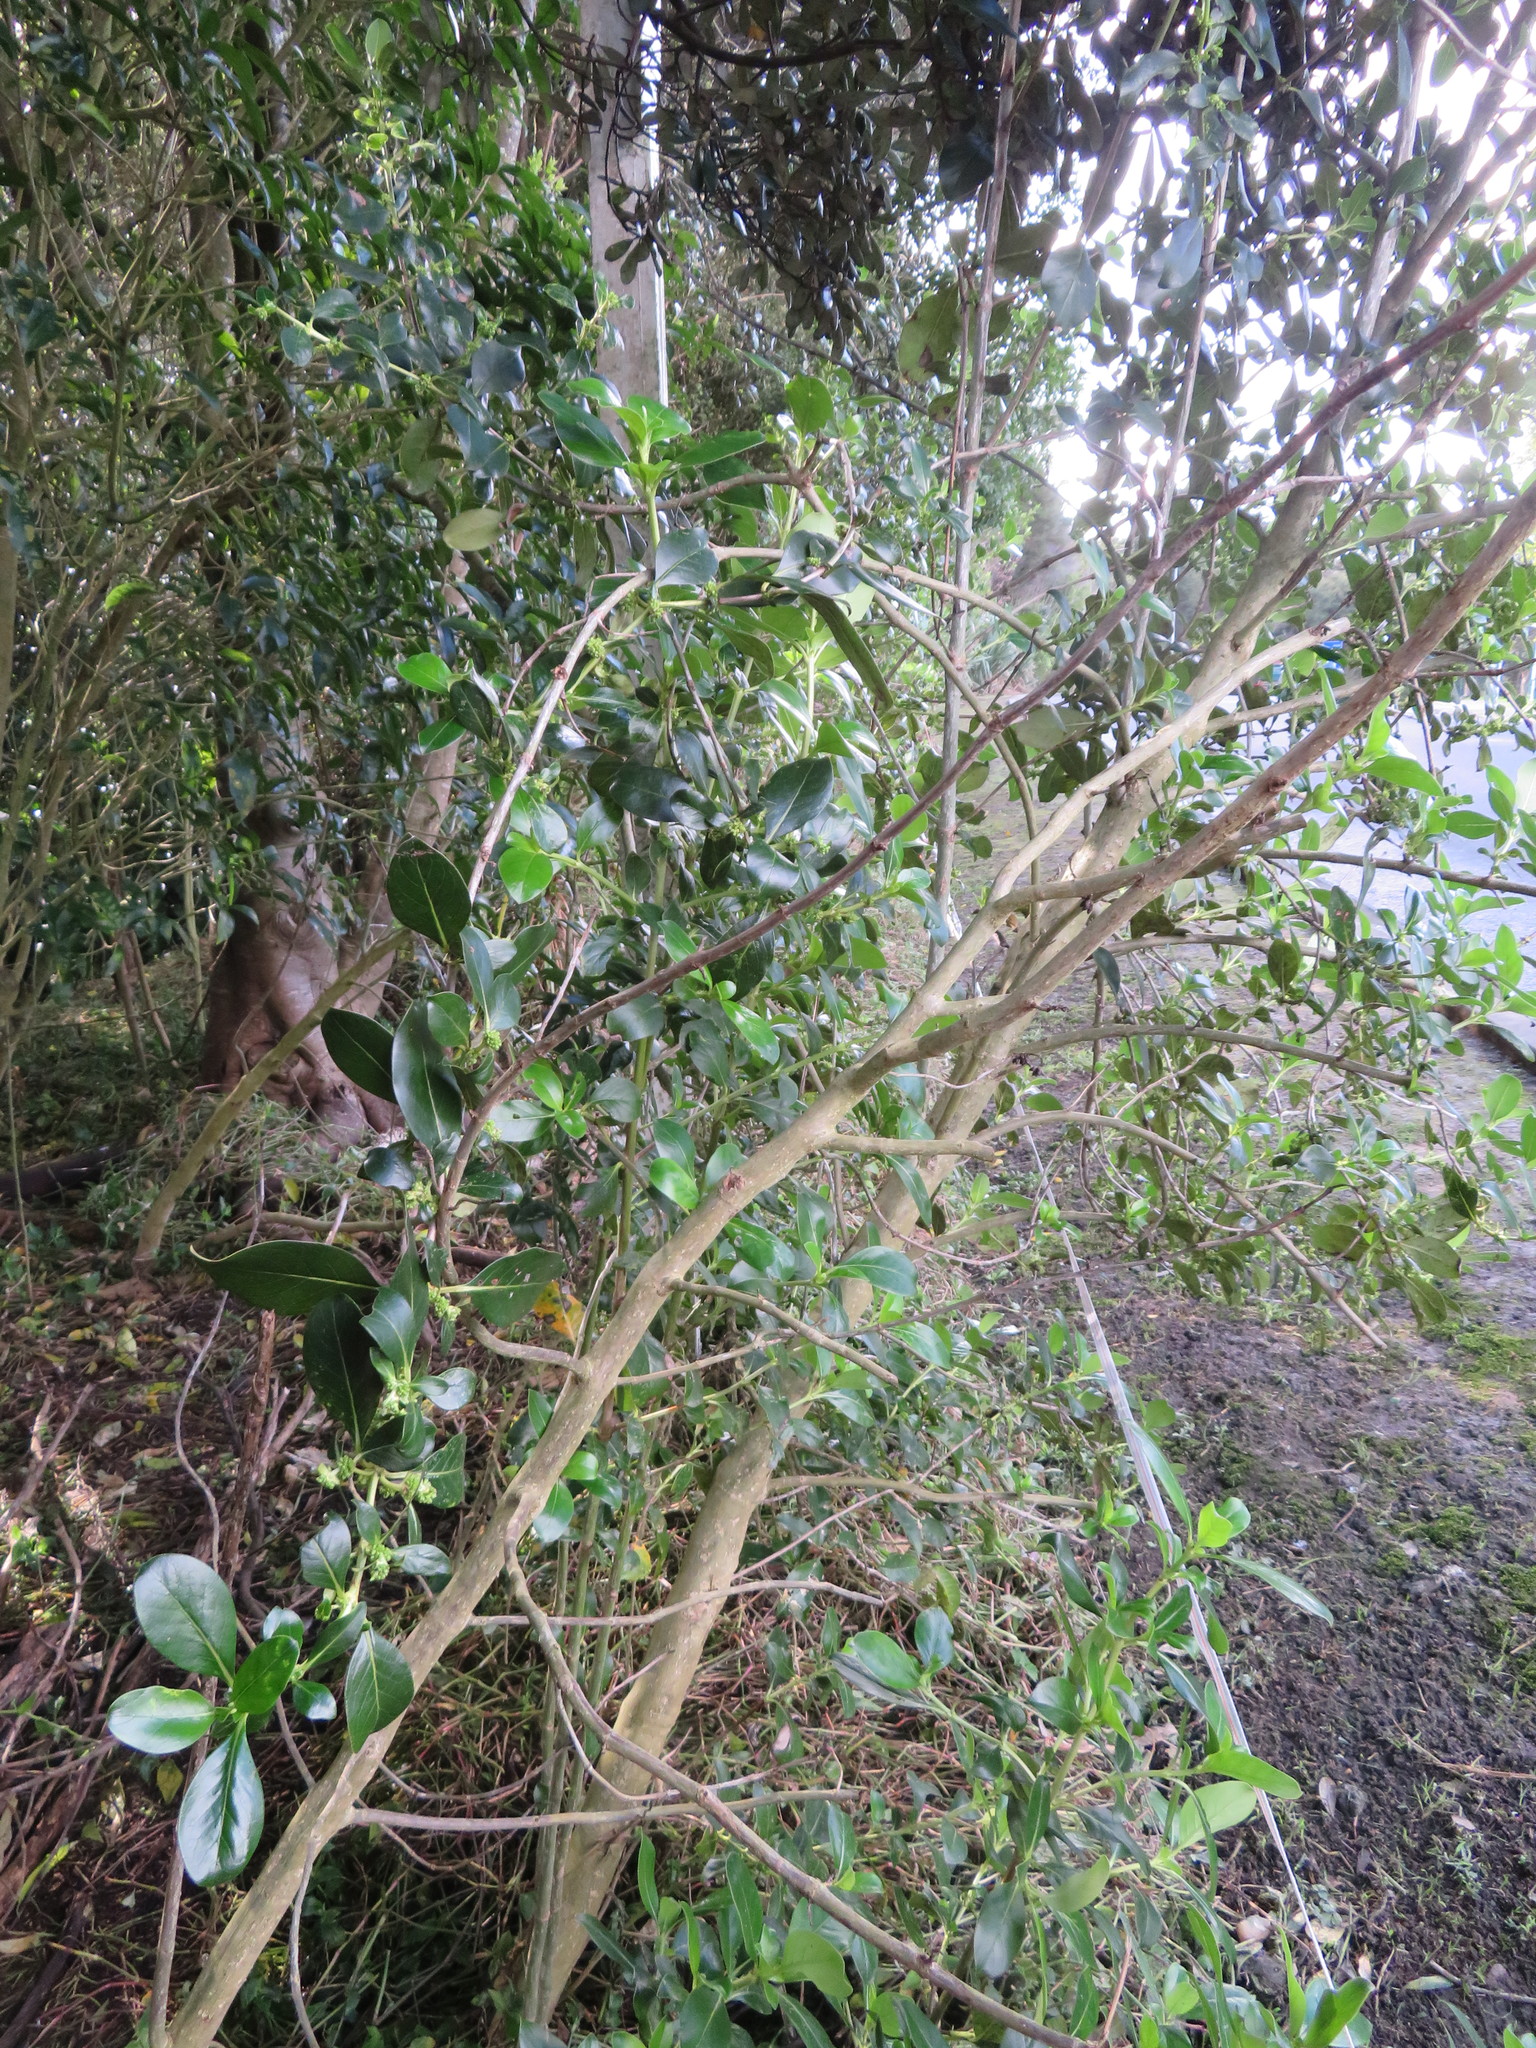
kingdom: Plantae
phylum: Tracheophyta
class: Magnoliopsida
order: Gentianales
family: Rubiaceae
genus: Coprosma
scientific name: Coprosma robusta
